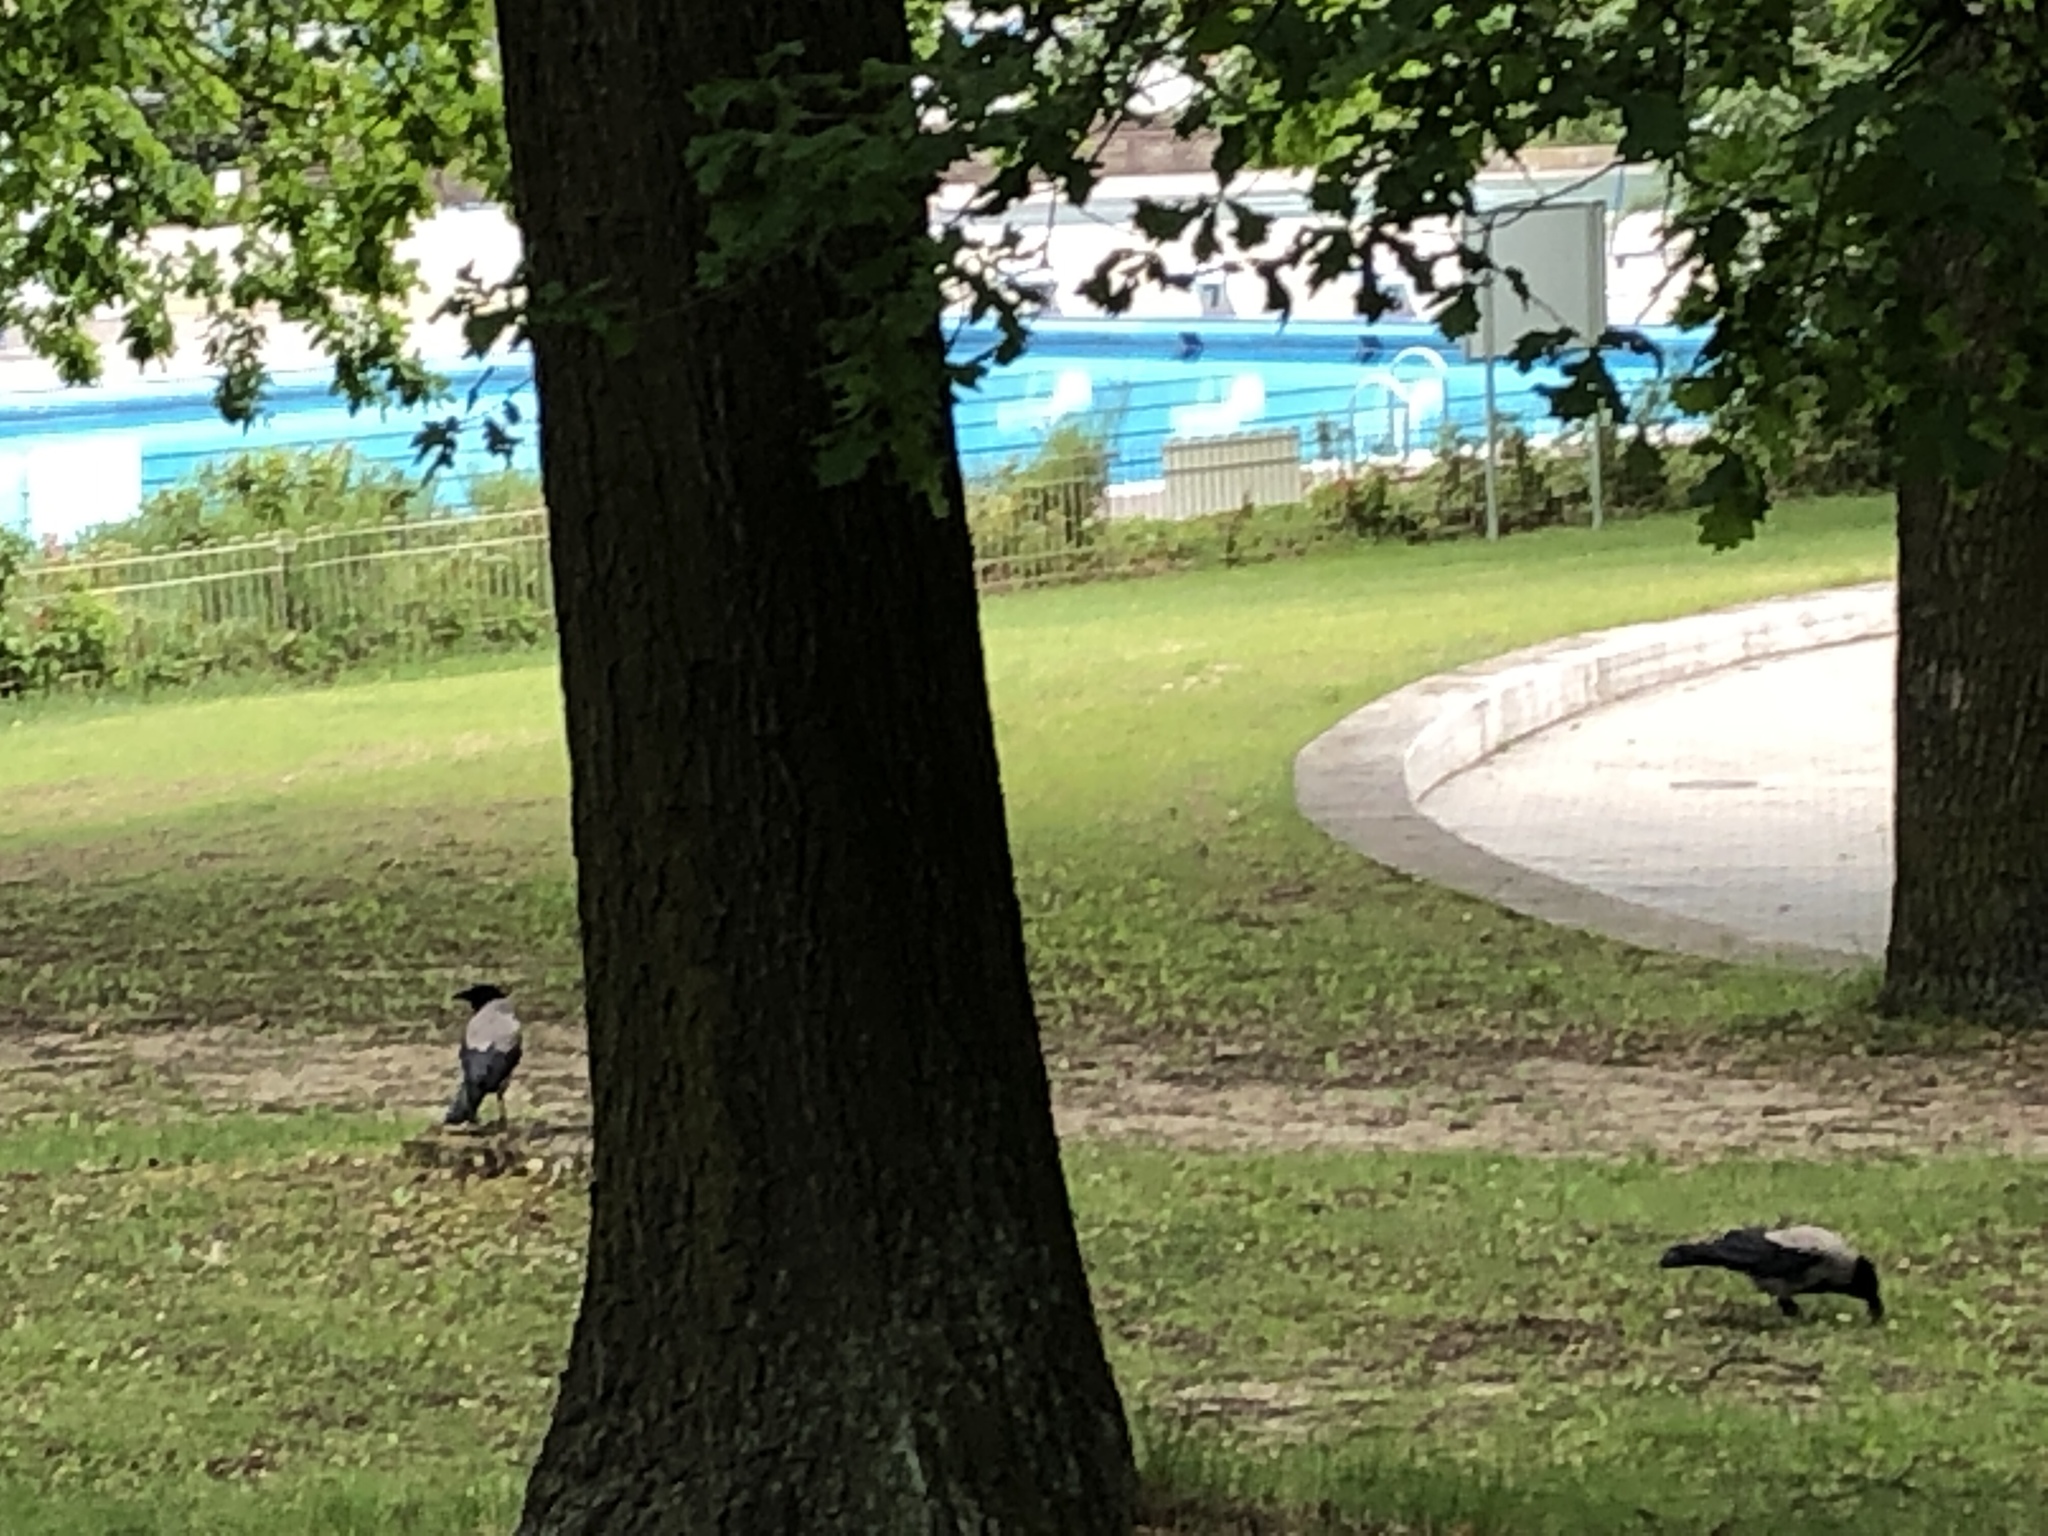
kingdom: Animalia
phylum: Chordata
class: Aves
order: Passeriformes
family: Corvidae
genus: Corvus
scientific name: Corvus cornix
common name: Hooded crow
